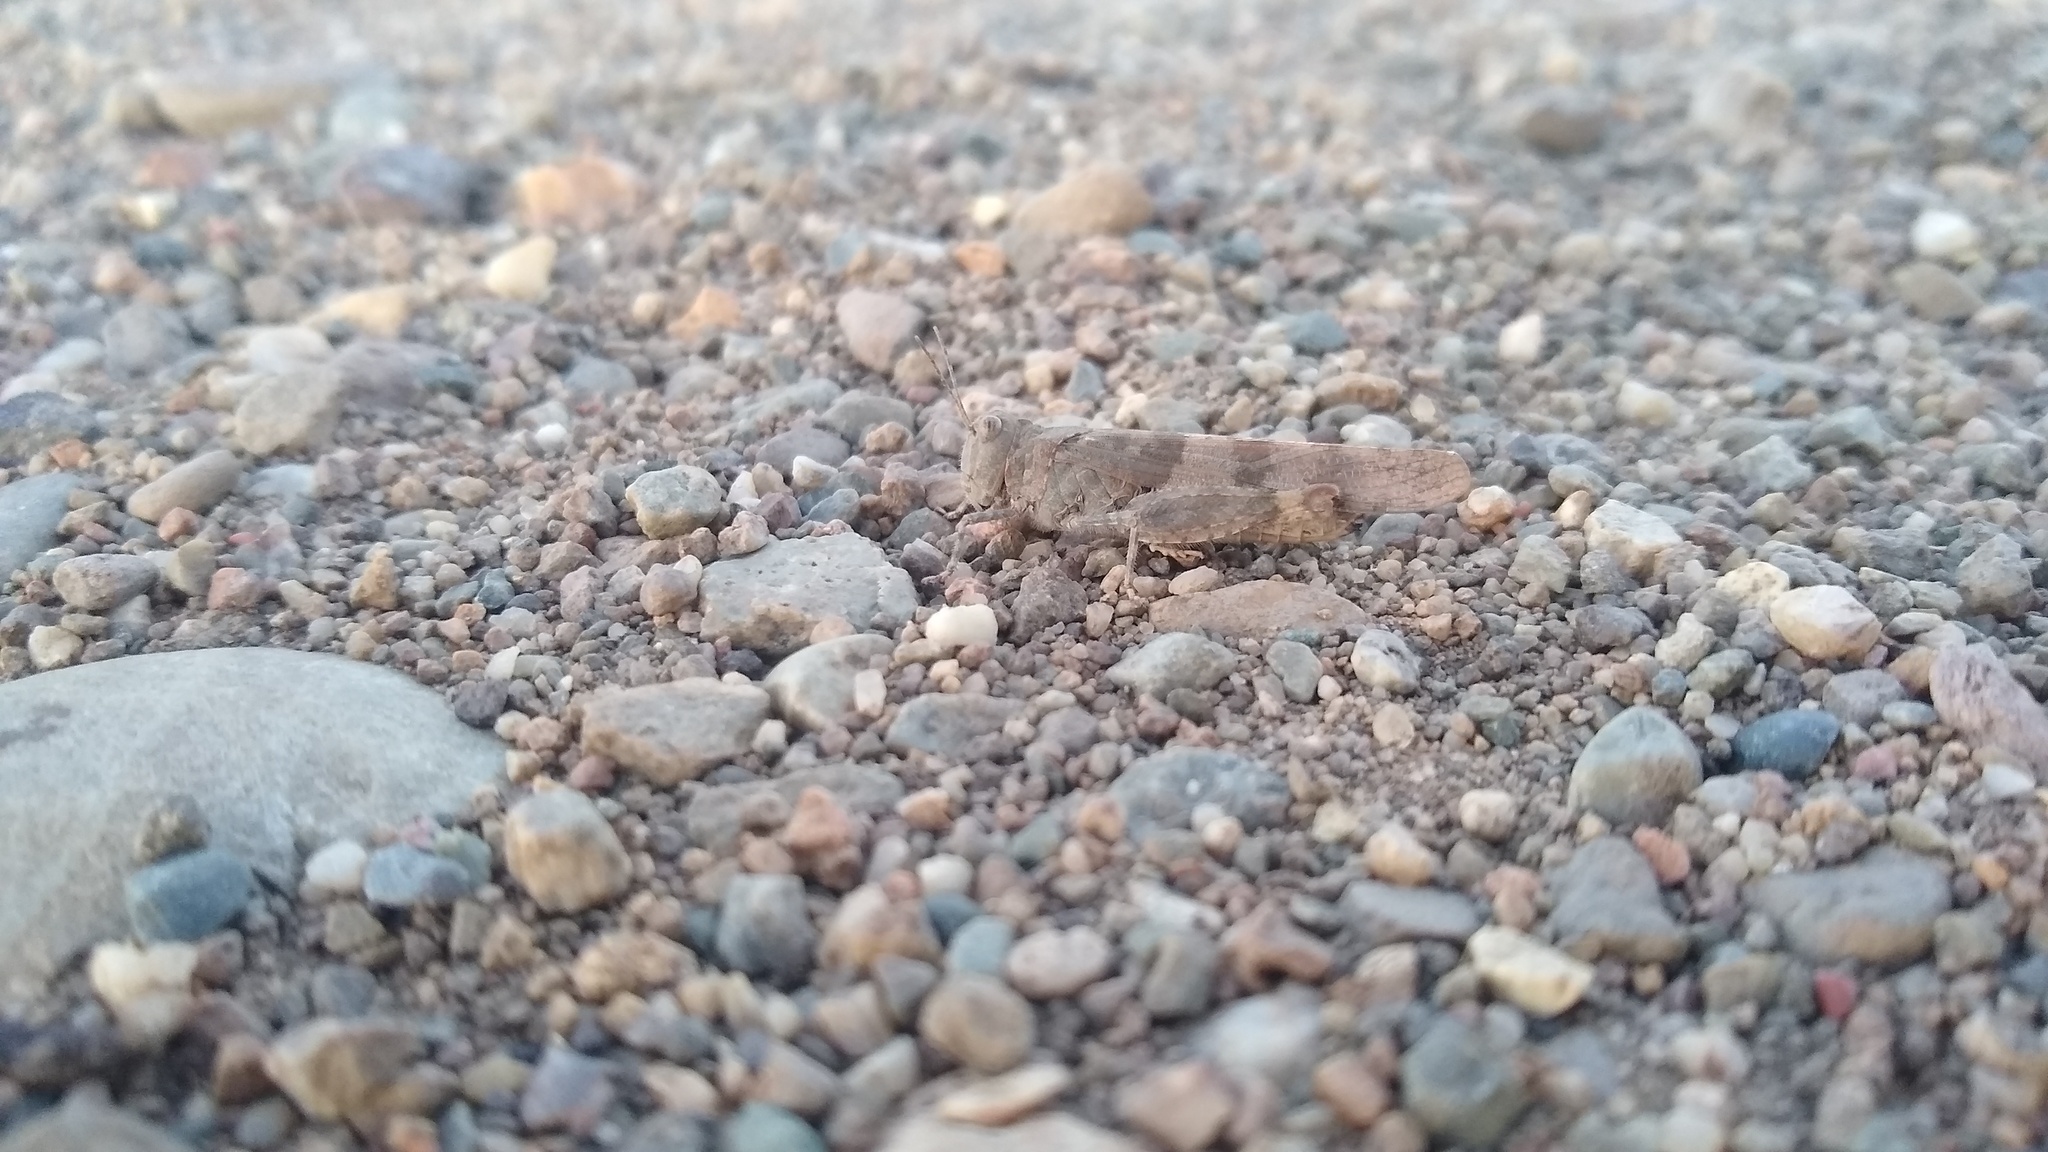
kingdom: Animalia
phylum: Arthropoda
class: Insecta
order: Orthoptera
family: Acrididae
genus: Trimerotropis
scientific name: Trimerotropis pallidipennis
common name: Pallid-winged grasshopper
